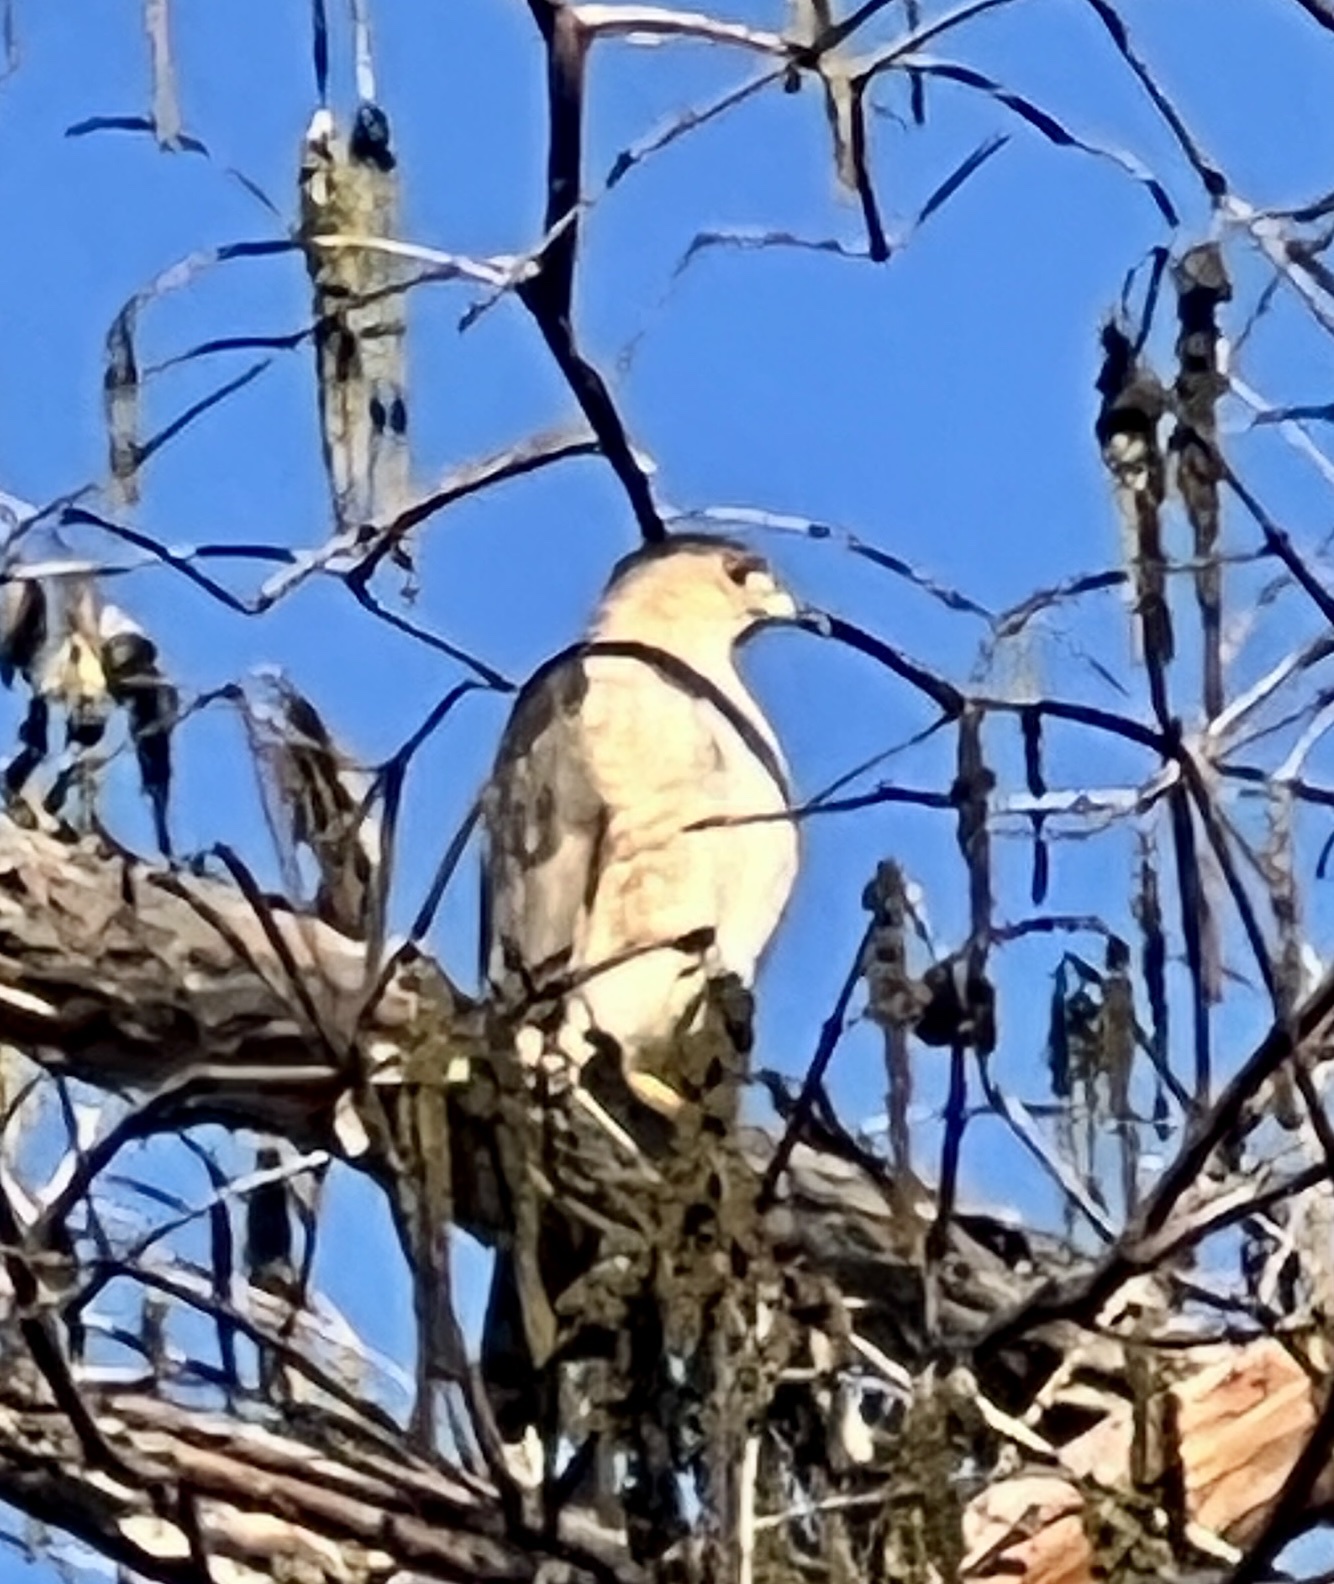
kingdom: Animalia
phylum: Chordata
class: Aves
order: Accipitriformes
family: Accipitridae
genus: Accipiter
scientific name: Accipiter cooperii
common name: Cooper's hawk
